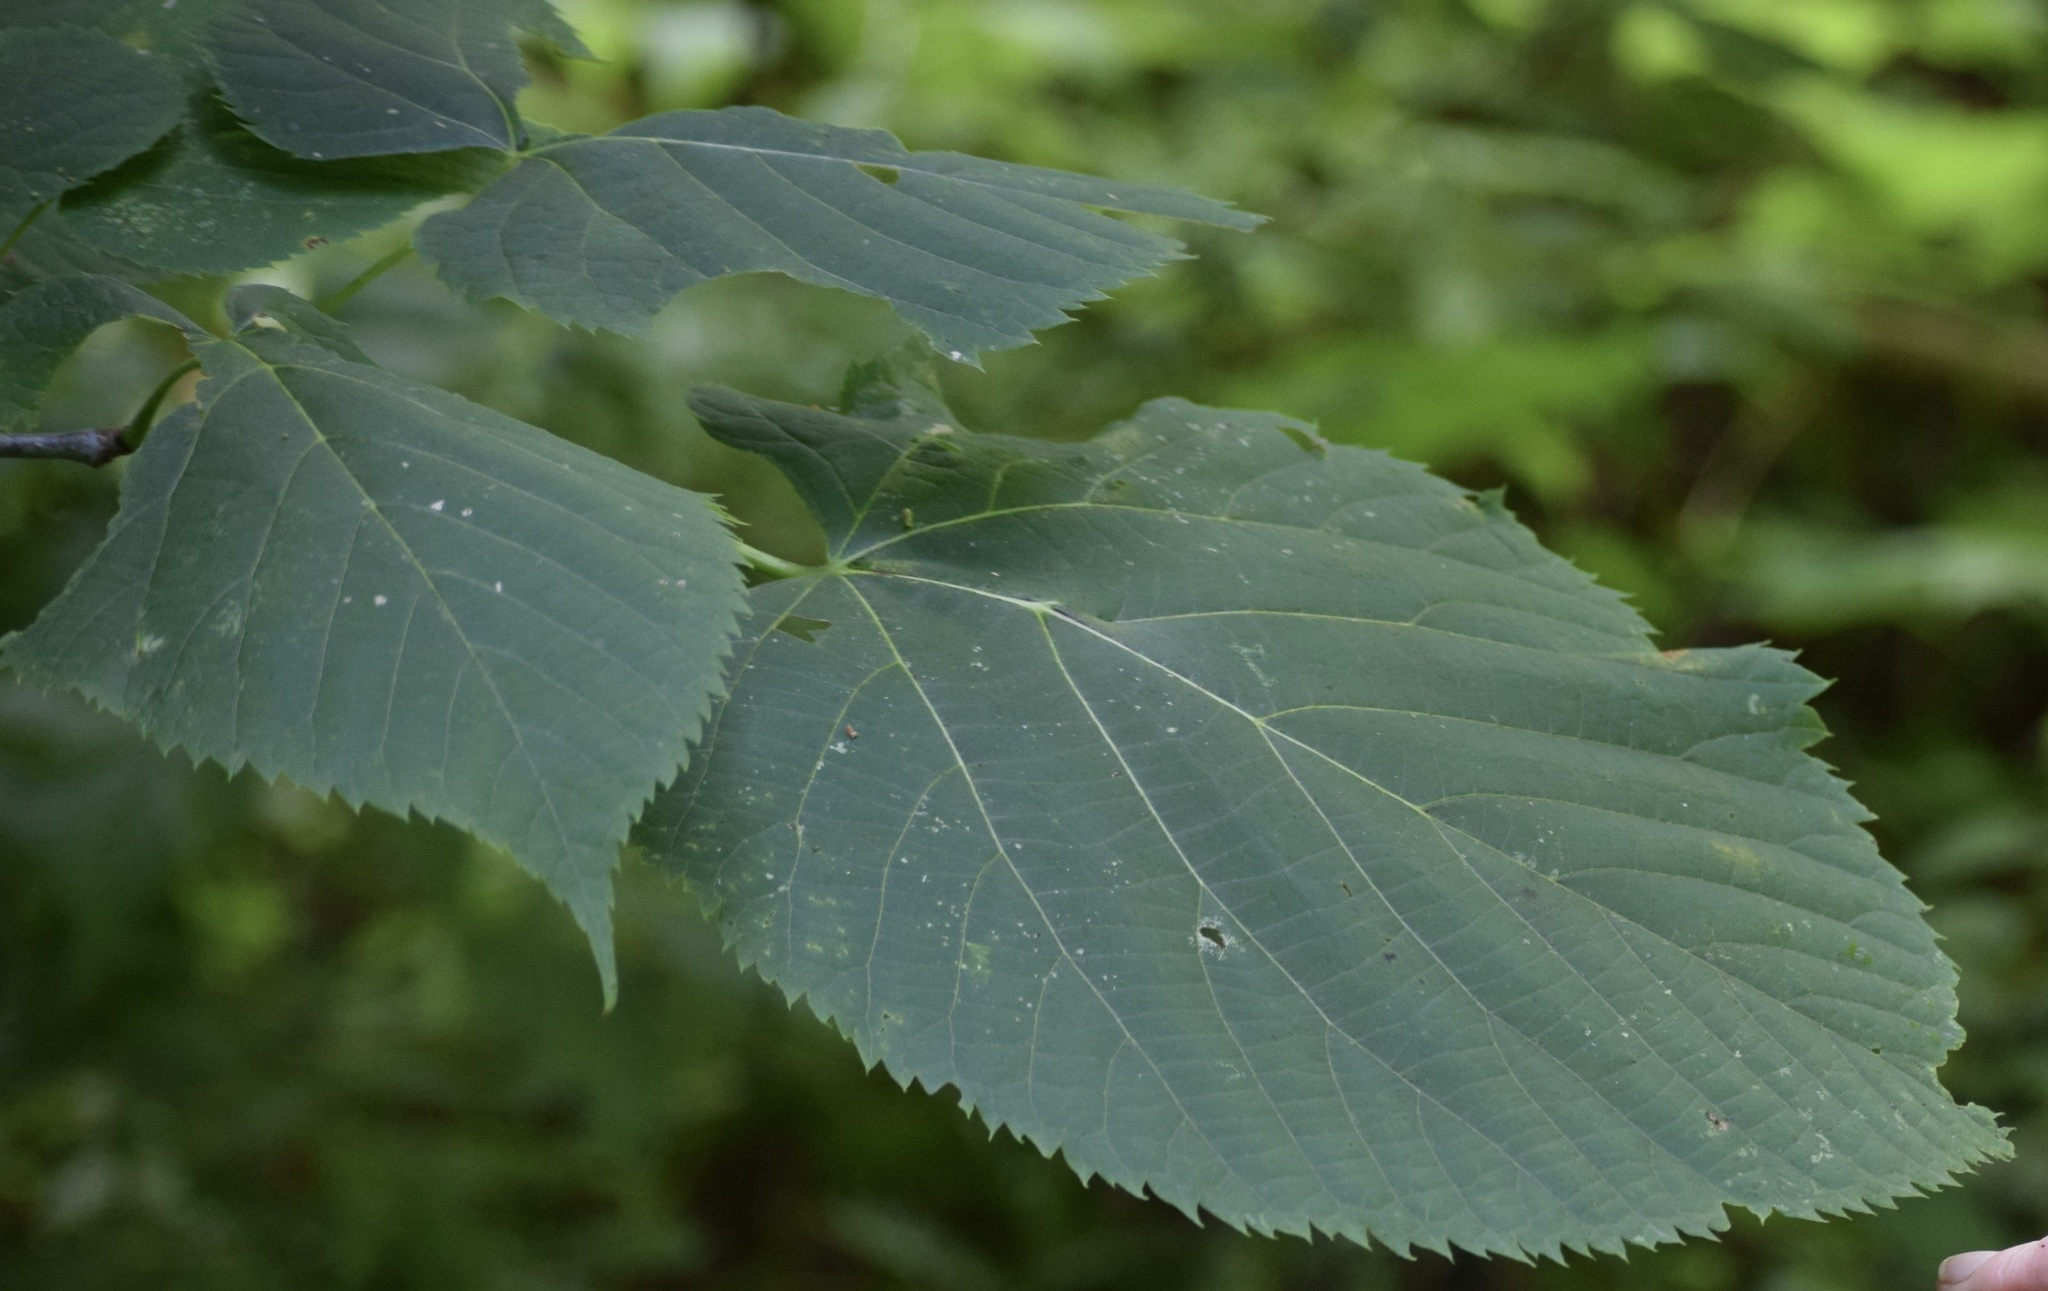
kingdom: Plantae
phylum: Tracheophyta
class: Magnoliopsida
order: Malvales
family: Malvaceae
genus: Tilia
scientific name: Tilia americana
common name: Basswood
